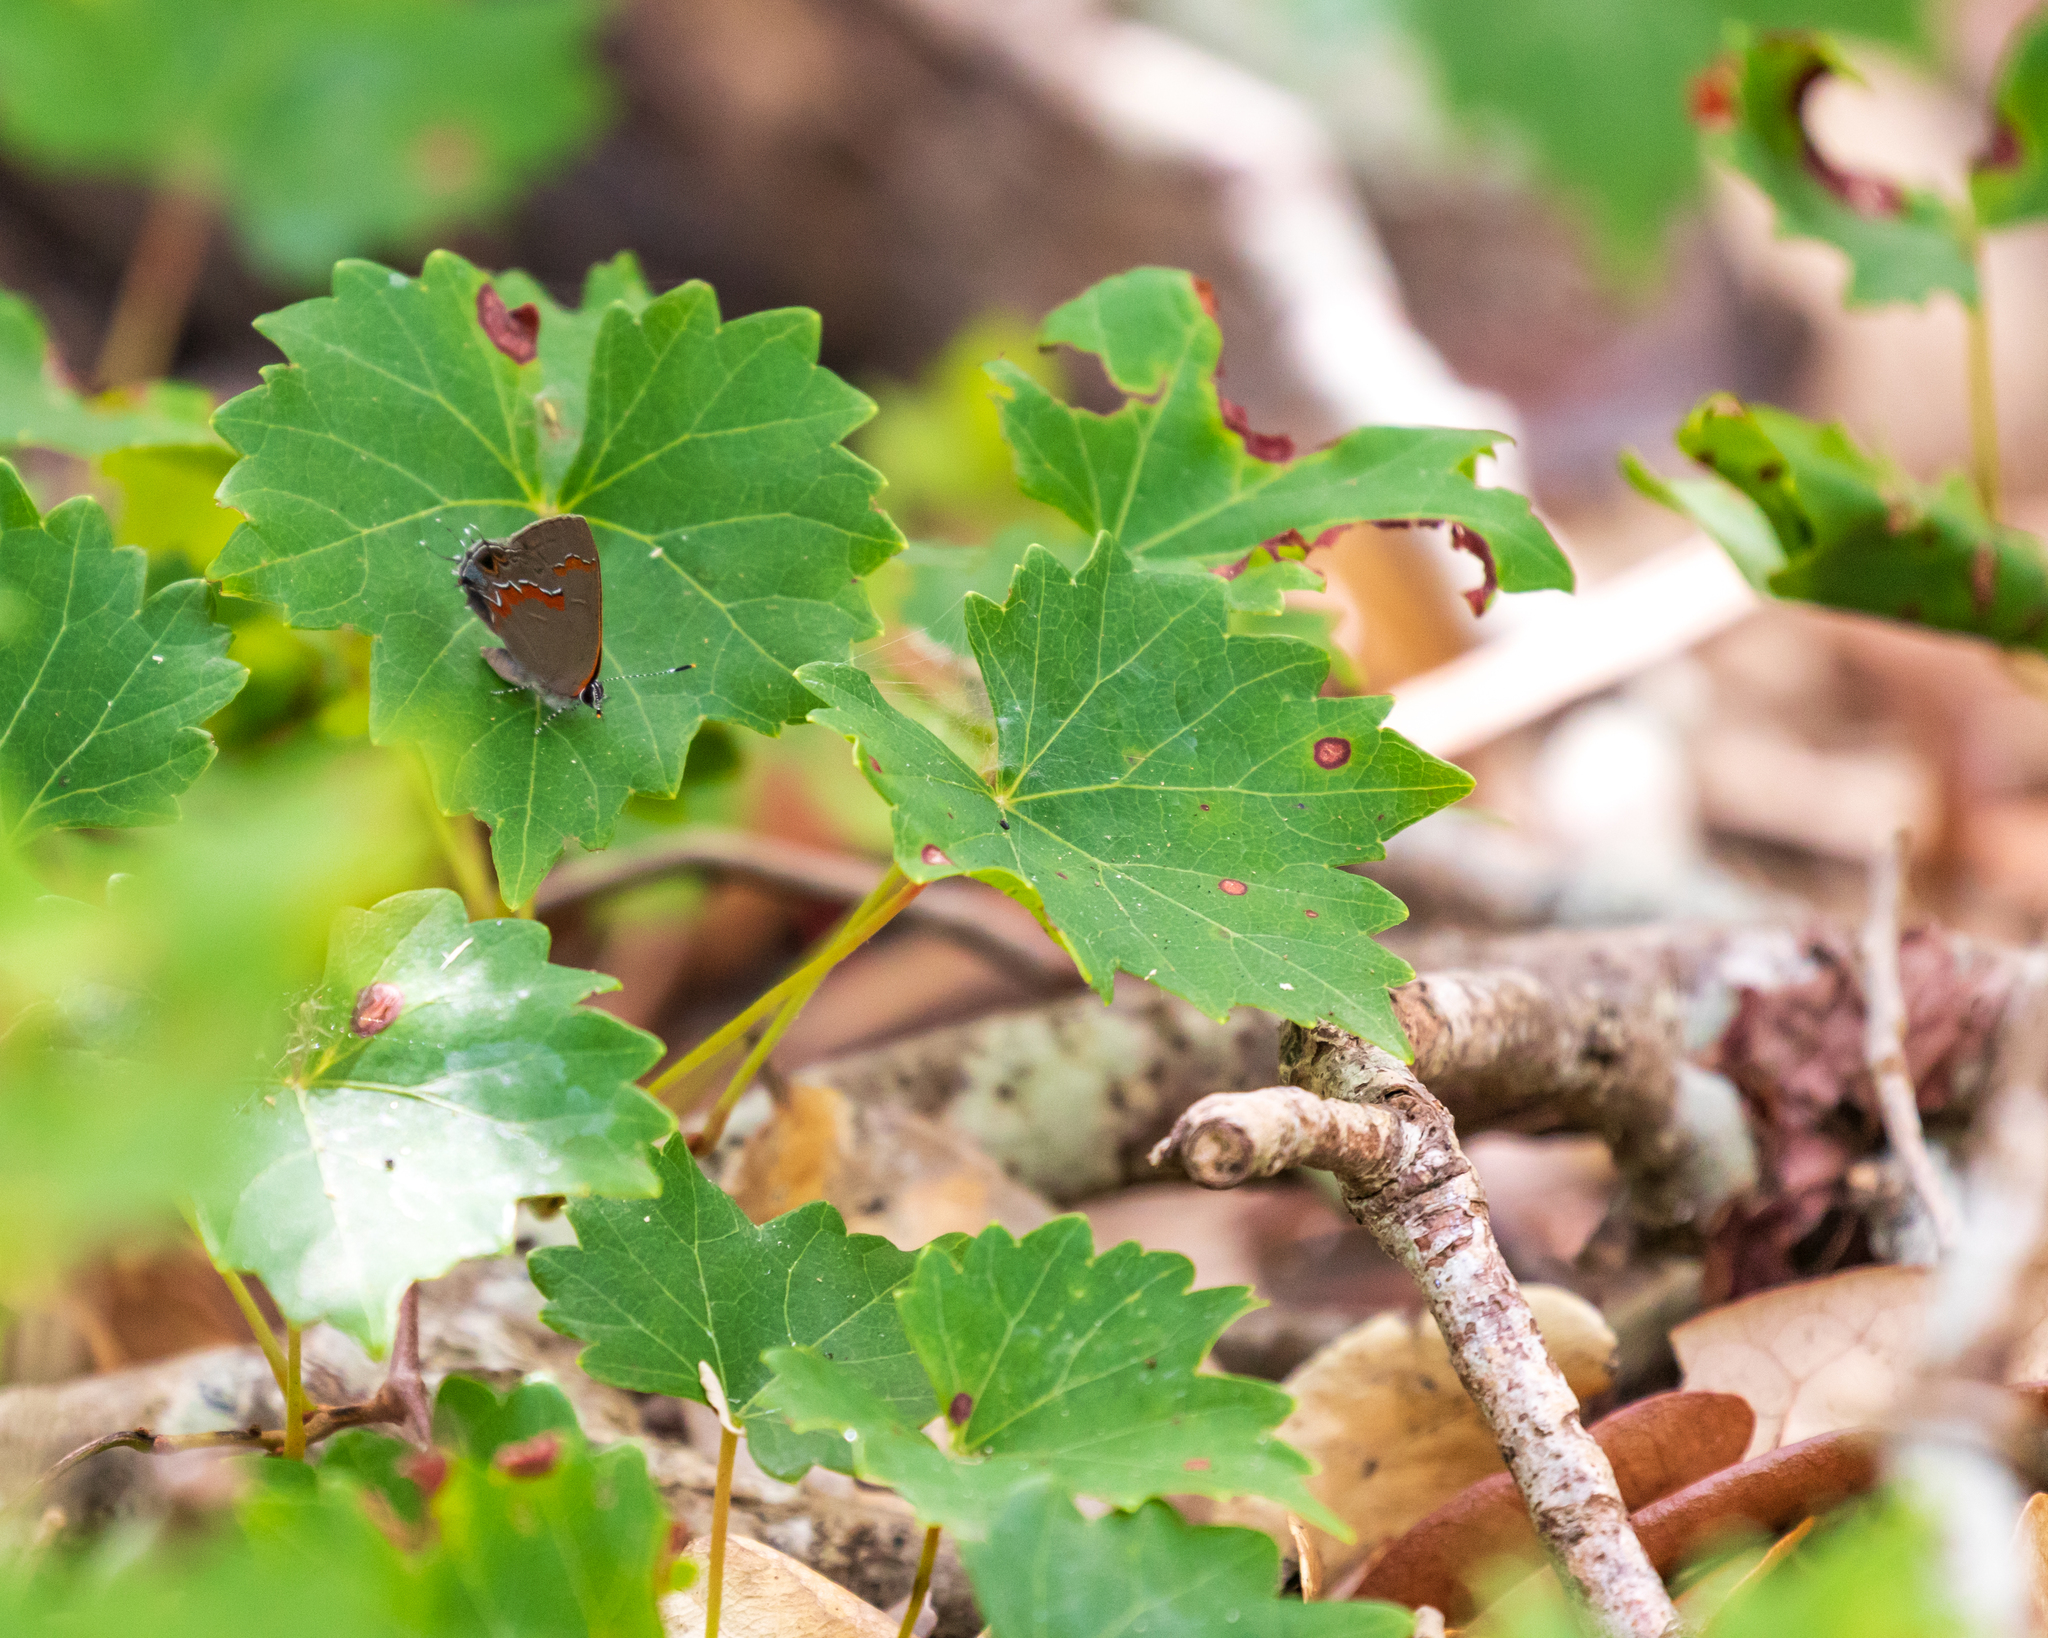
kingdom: Animalia
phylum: Arthropoda
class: Insecta
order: Lepidoptera
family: Lycaenidae
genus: Calycopis
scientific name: Calycopis cecrops
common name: Red-banded hairstreak
